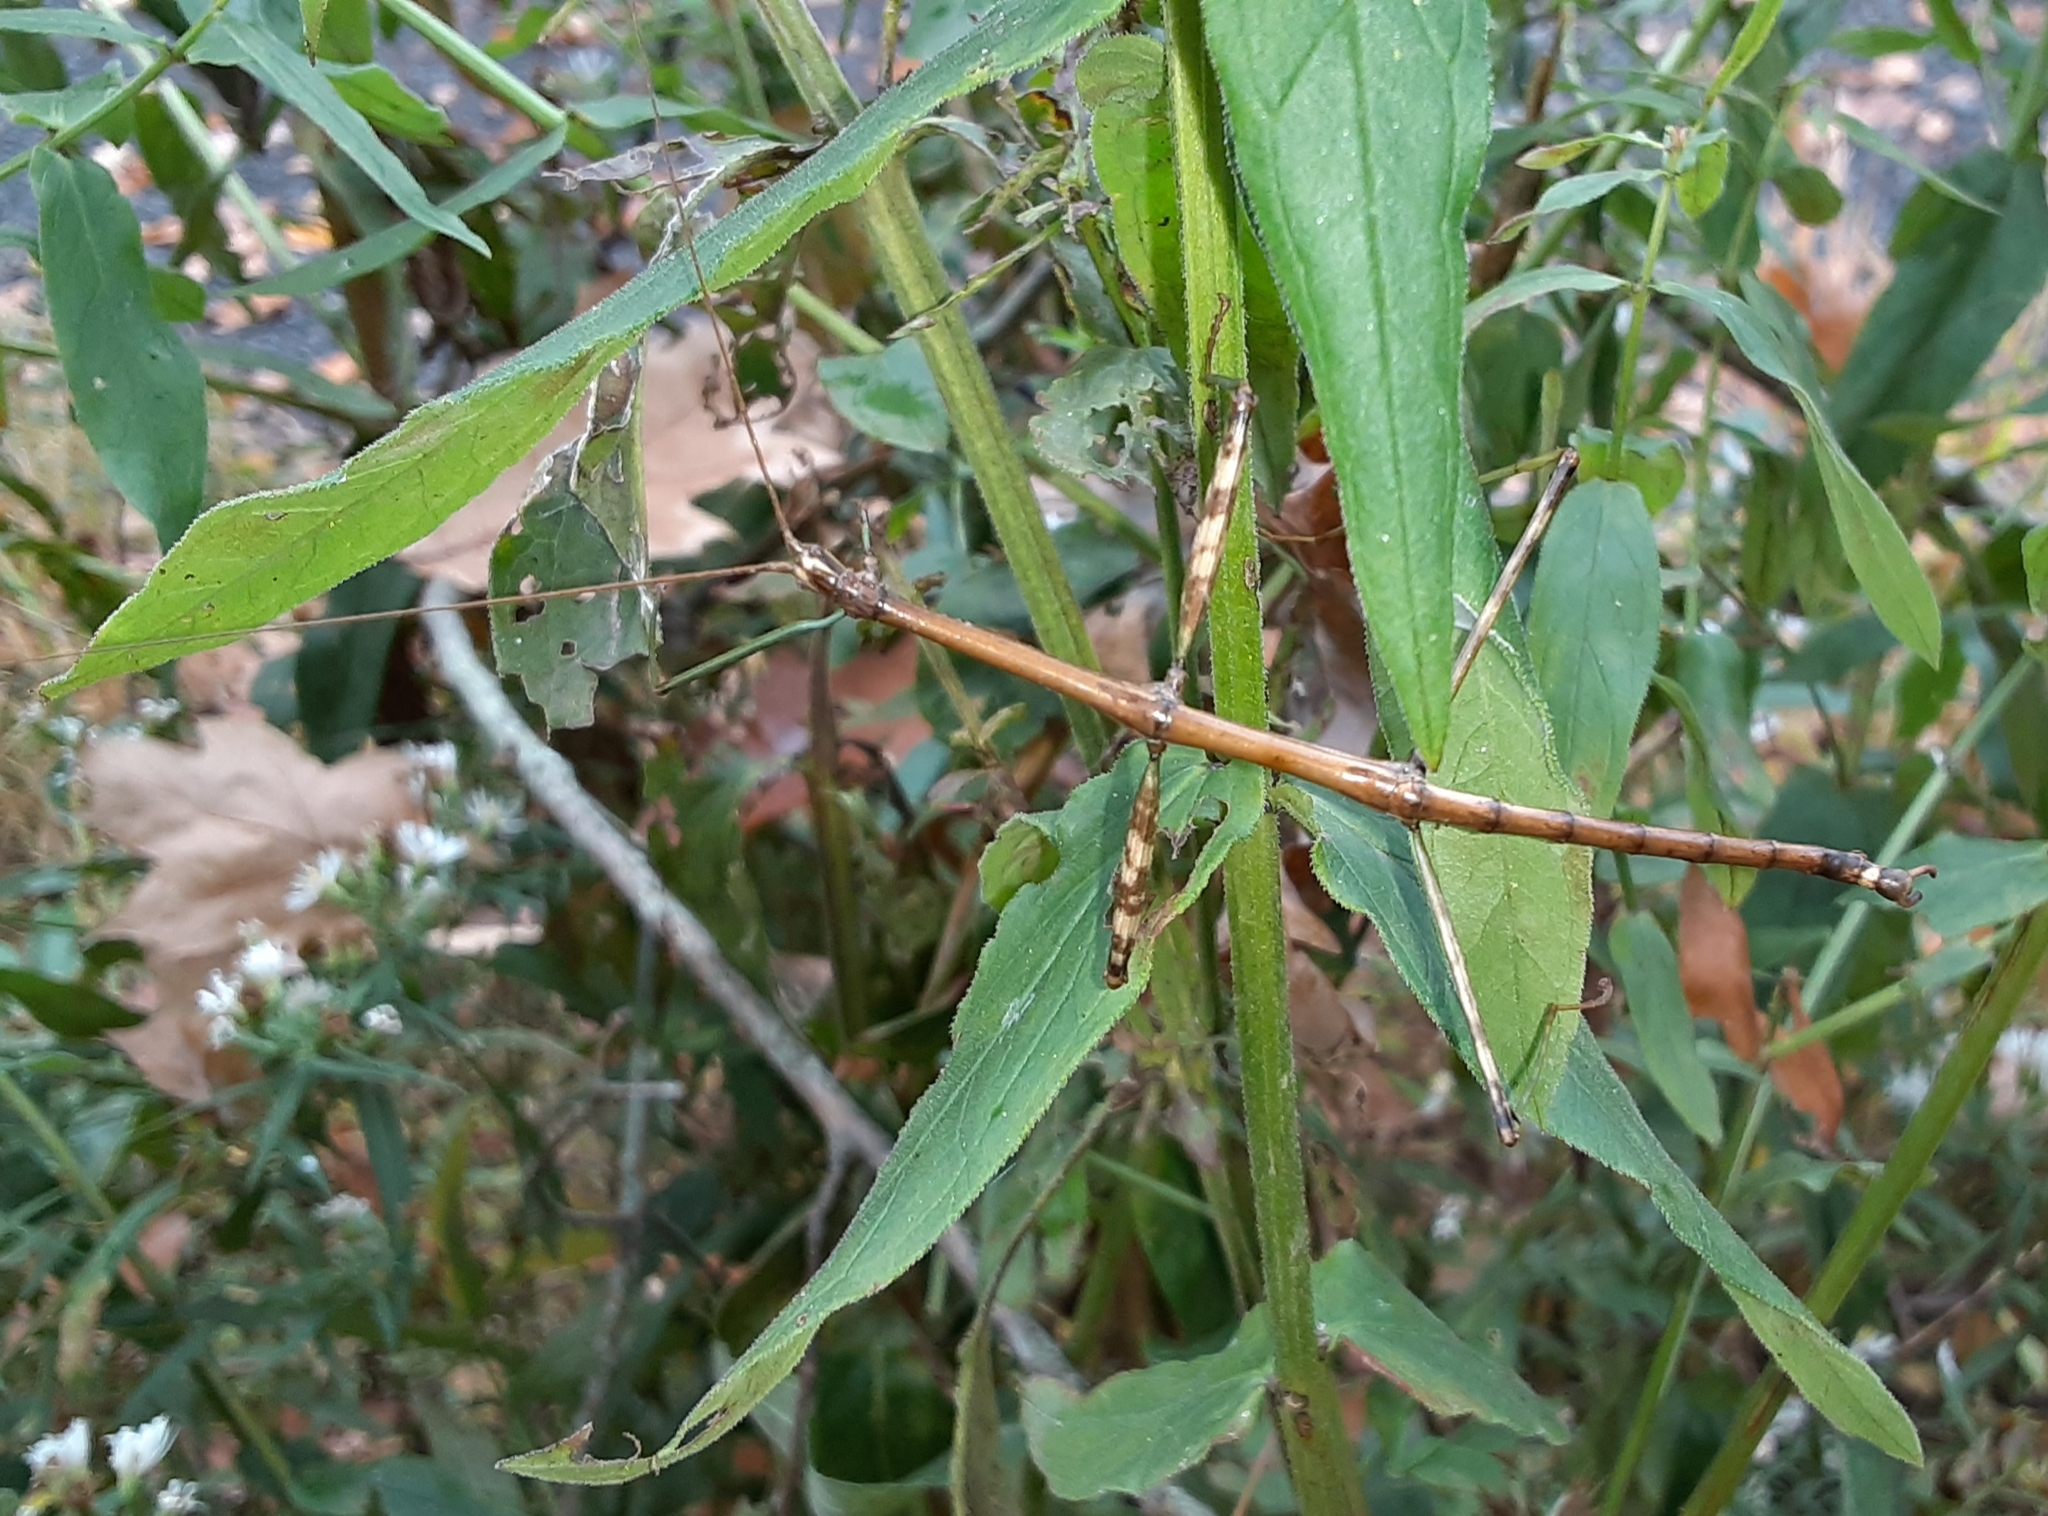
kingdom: Animalia
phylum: Arthropoda
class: Insecta
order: Phasmida
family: Diapheromeridae
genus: Diapheromera
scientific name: Diapheromera femorata
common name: Common american walkingstick
